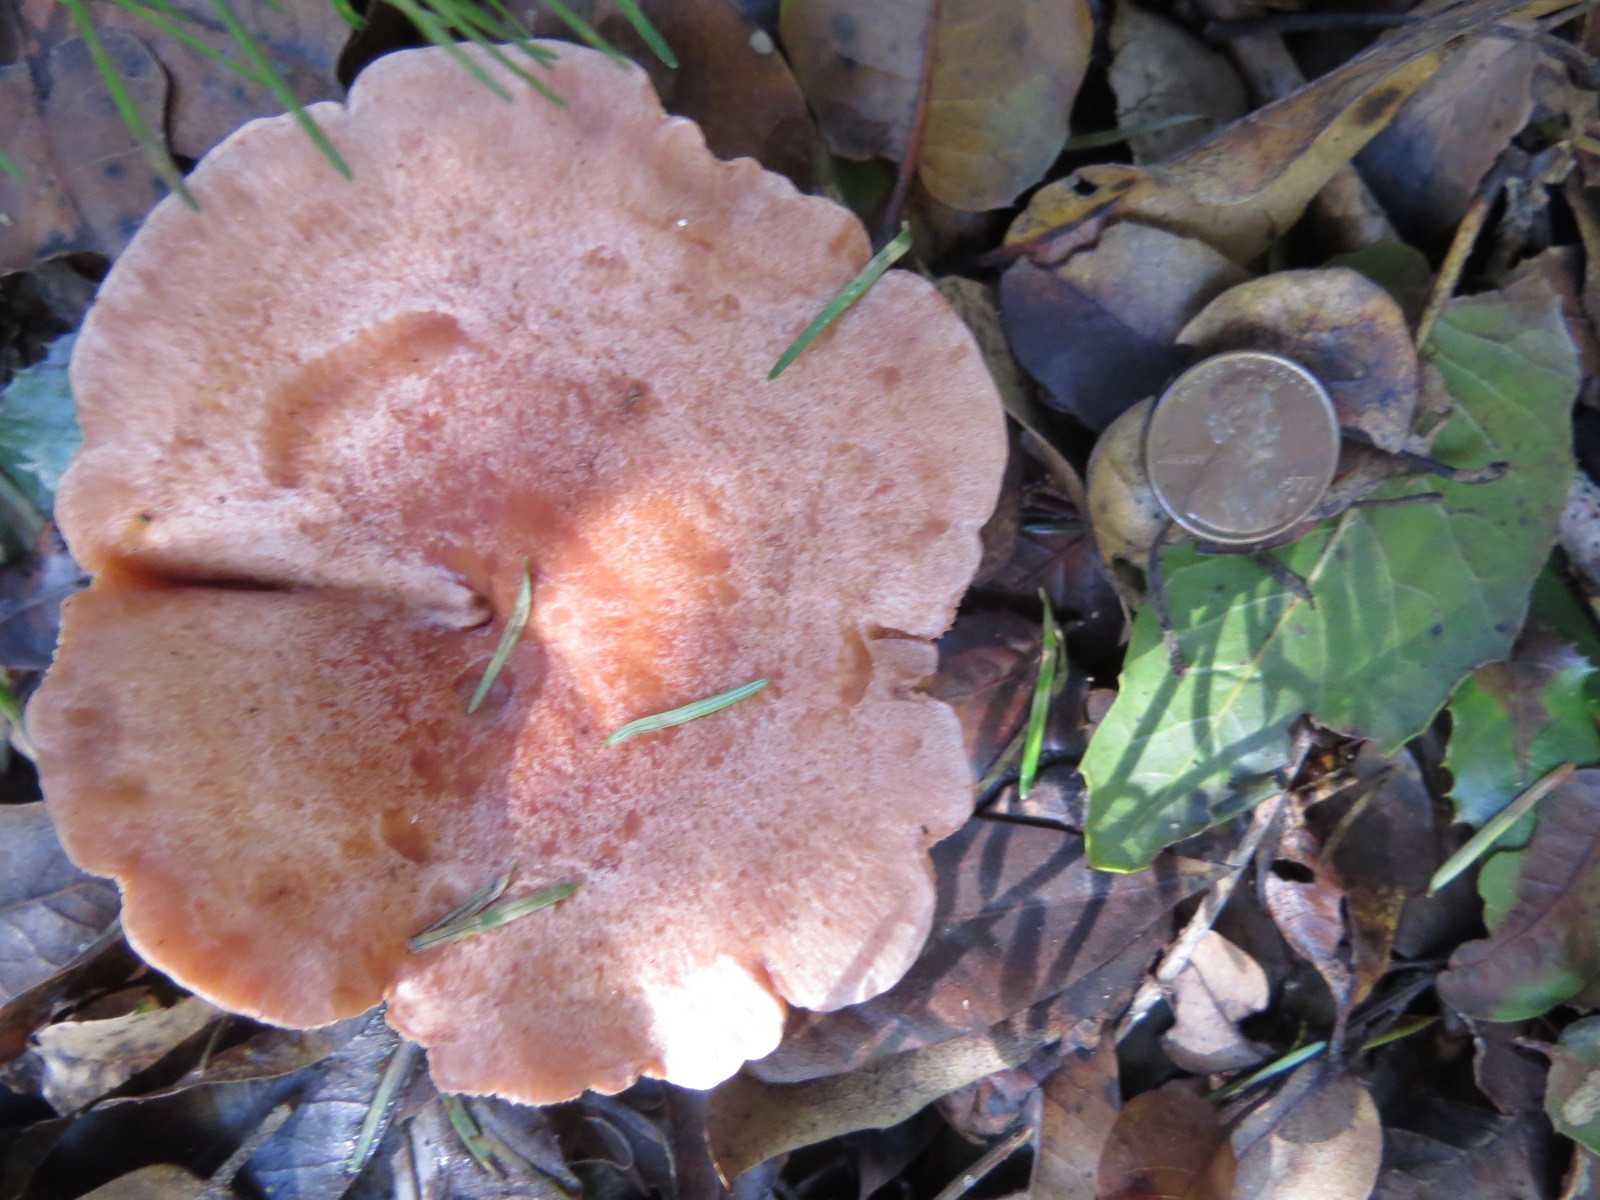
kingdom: Fungi
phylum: Basidiomycota
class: Agaricomycetes
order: Russulales
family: Russulaceae
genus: Lactarius
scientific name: Lactarius xanthogalactus
